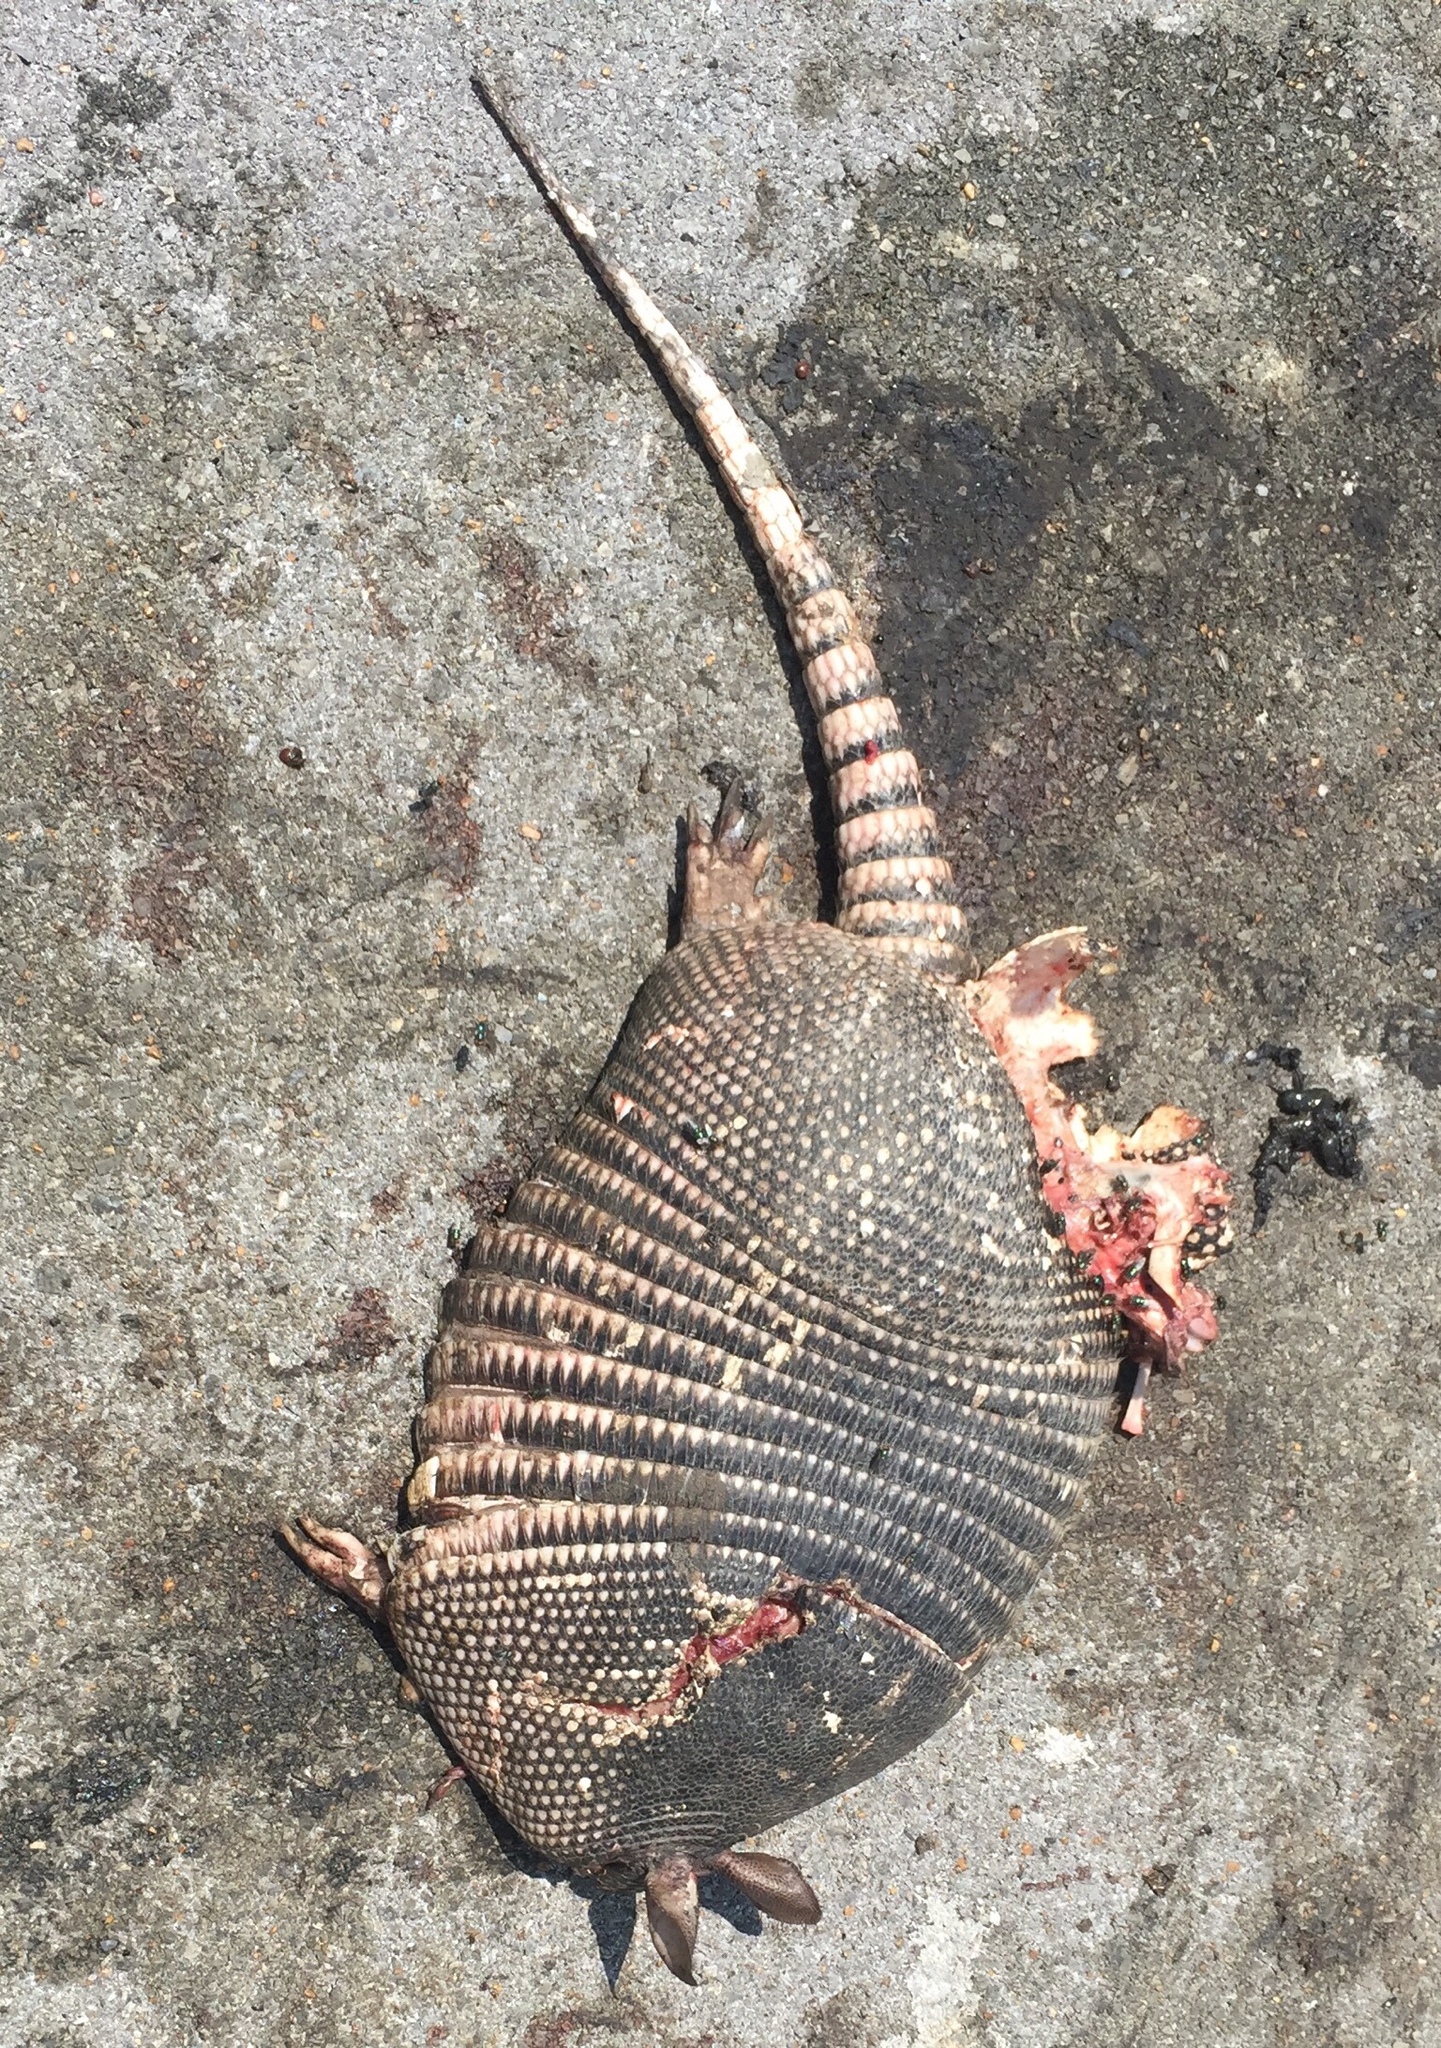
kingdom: Animalia
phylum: Chordata
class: Mammalia
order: Cingulata
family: Dasypodidae
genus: Dasypus
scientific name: Dasypus novemcinctus
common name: Nine-banded armadillo
